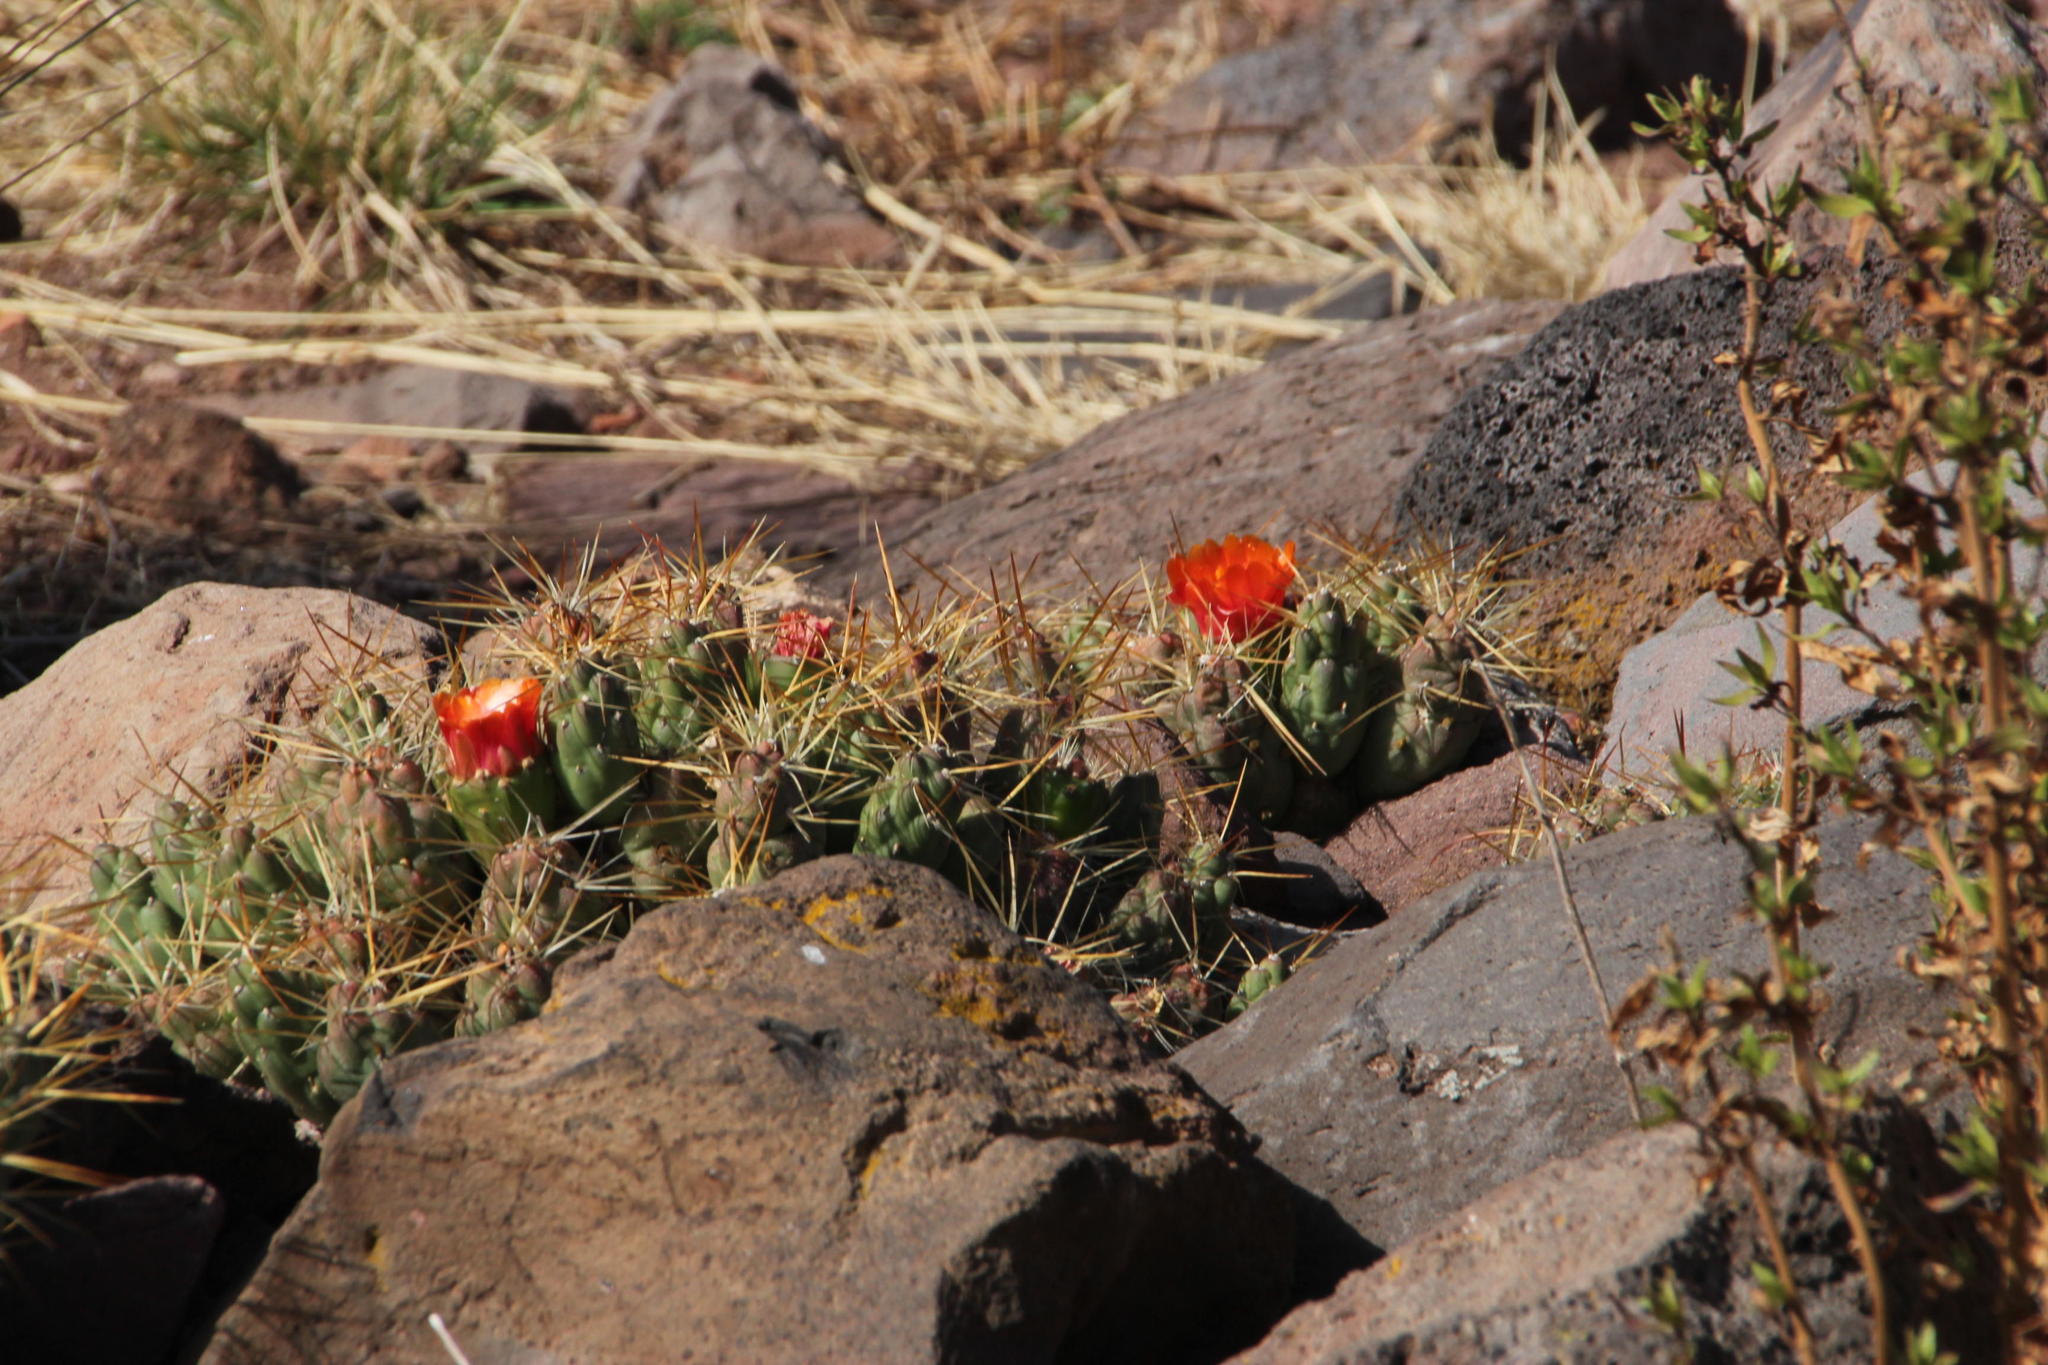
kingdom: Plantae
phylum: Tracheophyta
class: Magnoliopsida
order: Caryophyllales
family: Cactaceae
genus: Cumulopuntia
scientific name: Cumulopuntia boliviana
